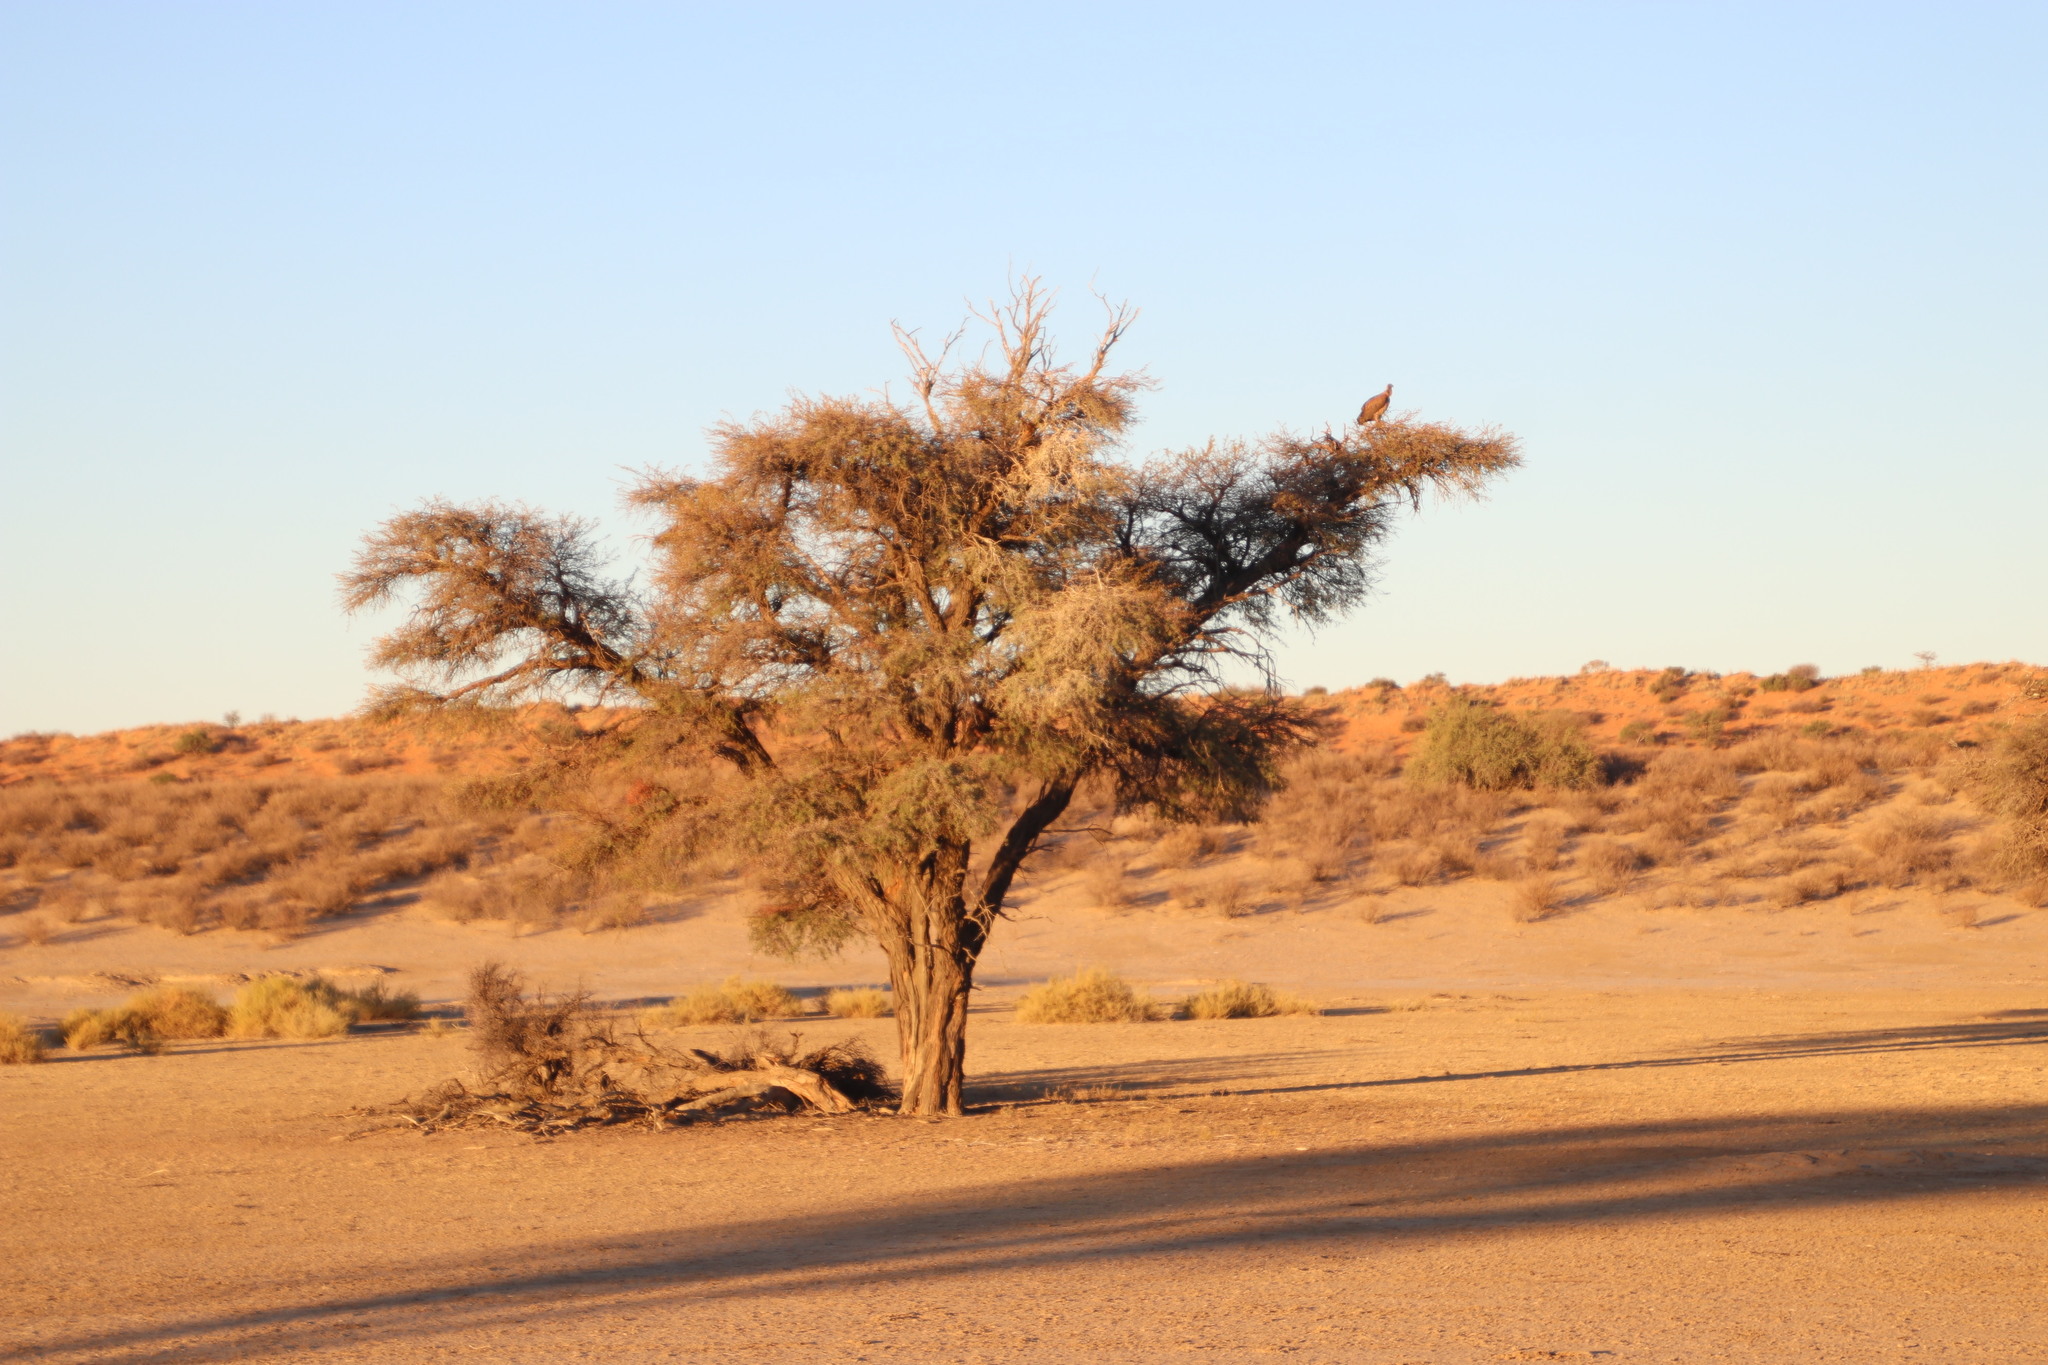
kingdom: Animalia
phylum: Chordata
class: Aves
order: Accipitriformes
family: Accipitridae
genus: Gyps
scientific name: Gyps africanus
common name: White-backed vulture
